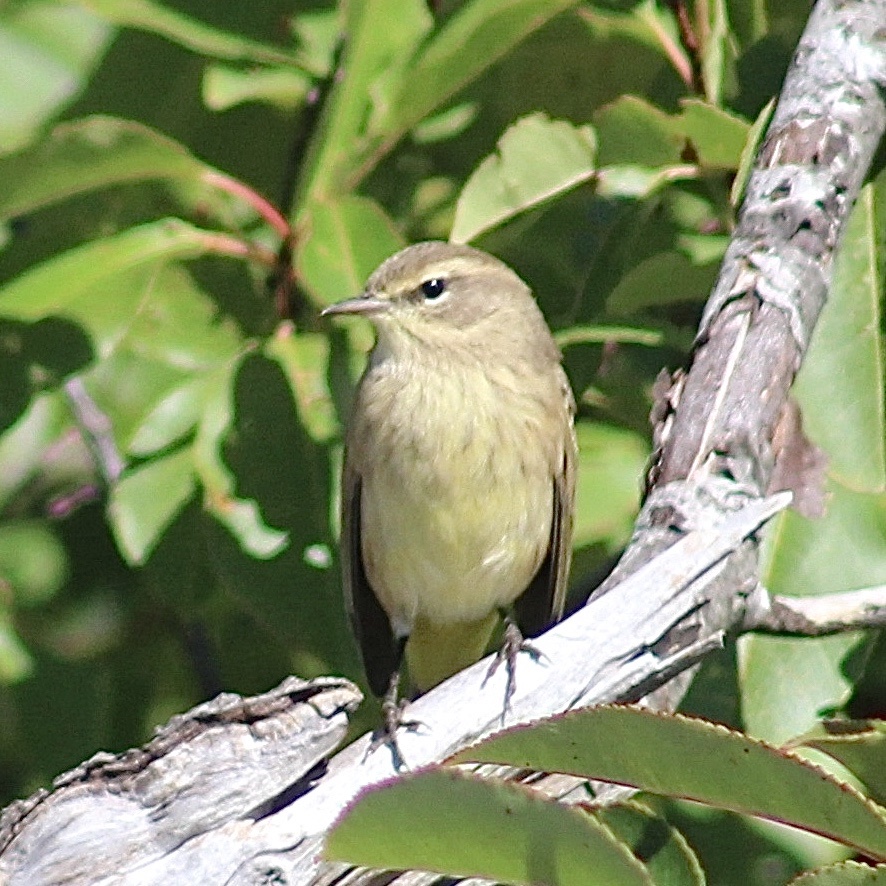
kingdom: Animalia
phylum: Chordata
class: Aves
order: Passeriformes
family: Parulidae
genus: Setophaga
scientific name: Setophaga palmarum
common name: Palm warbler
